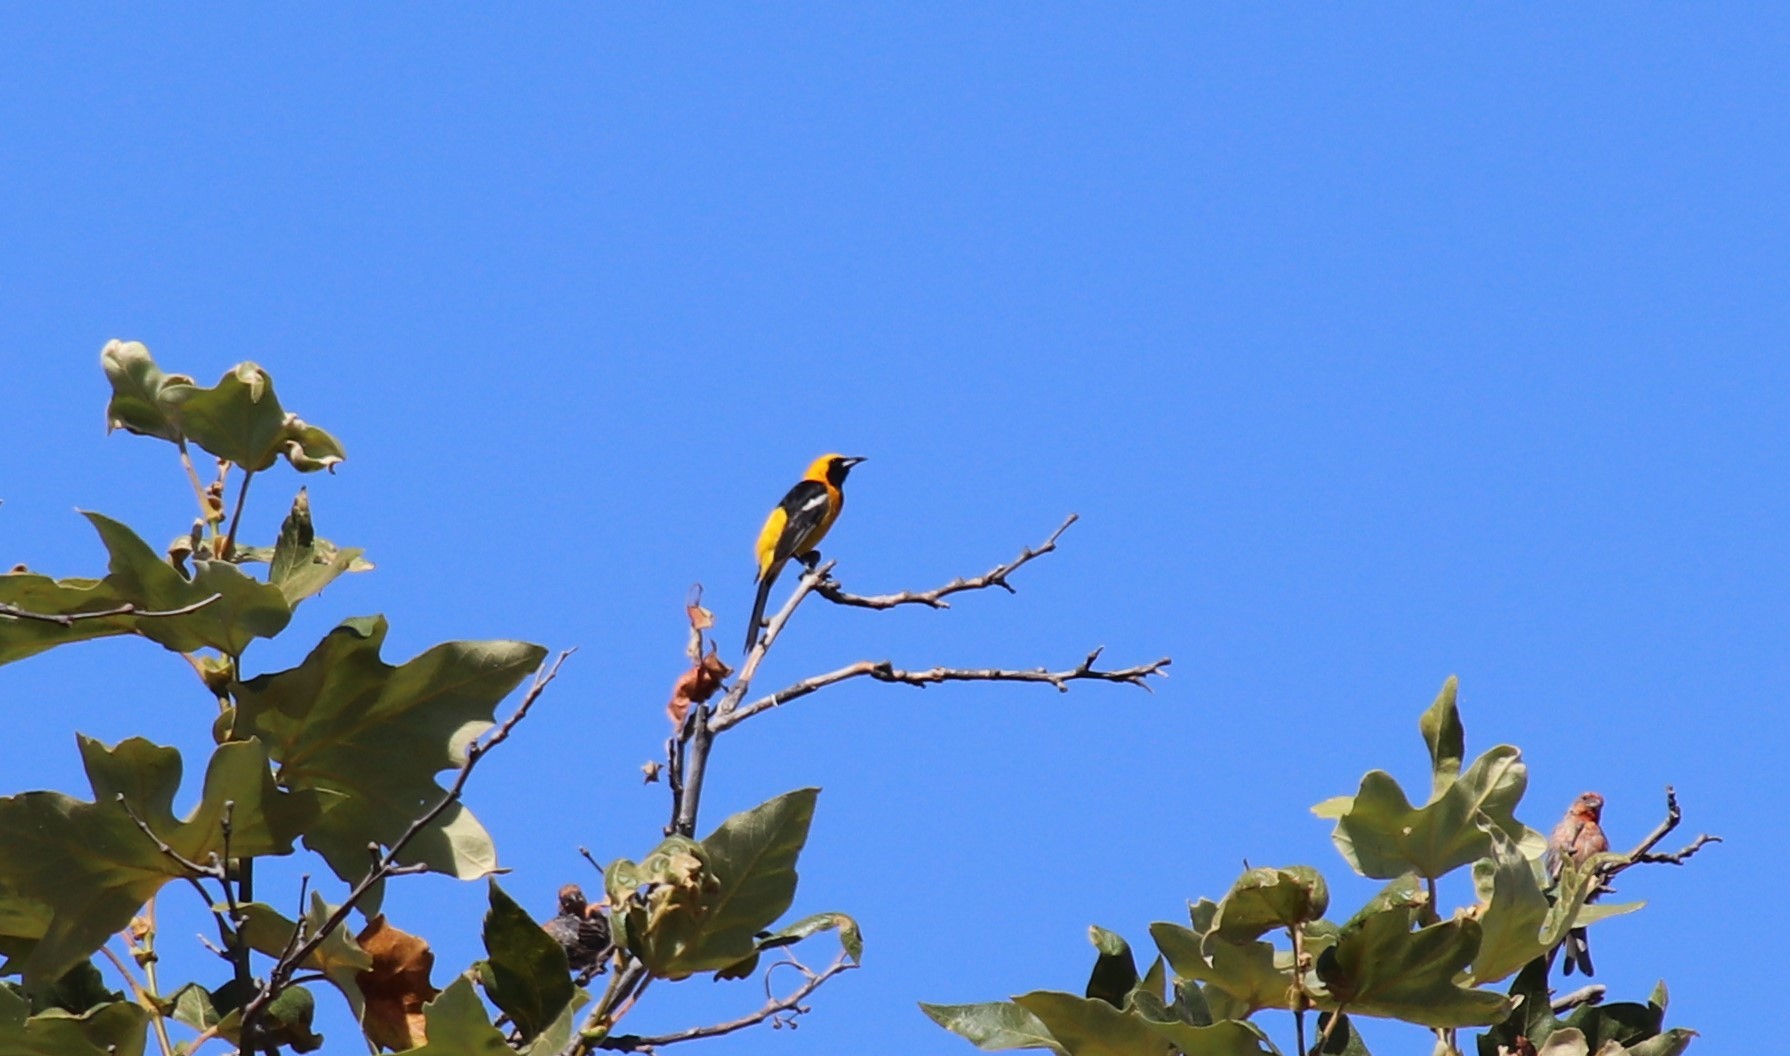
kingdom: Animalia
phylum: Chordata
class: Aves
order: Passeriformes
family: Icteridae
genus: Icterus
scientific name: Icterus cucullatus
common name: Hooded oriole
